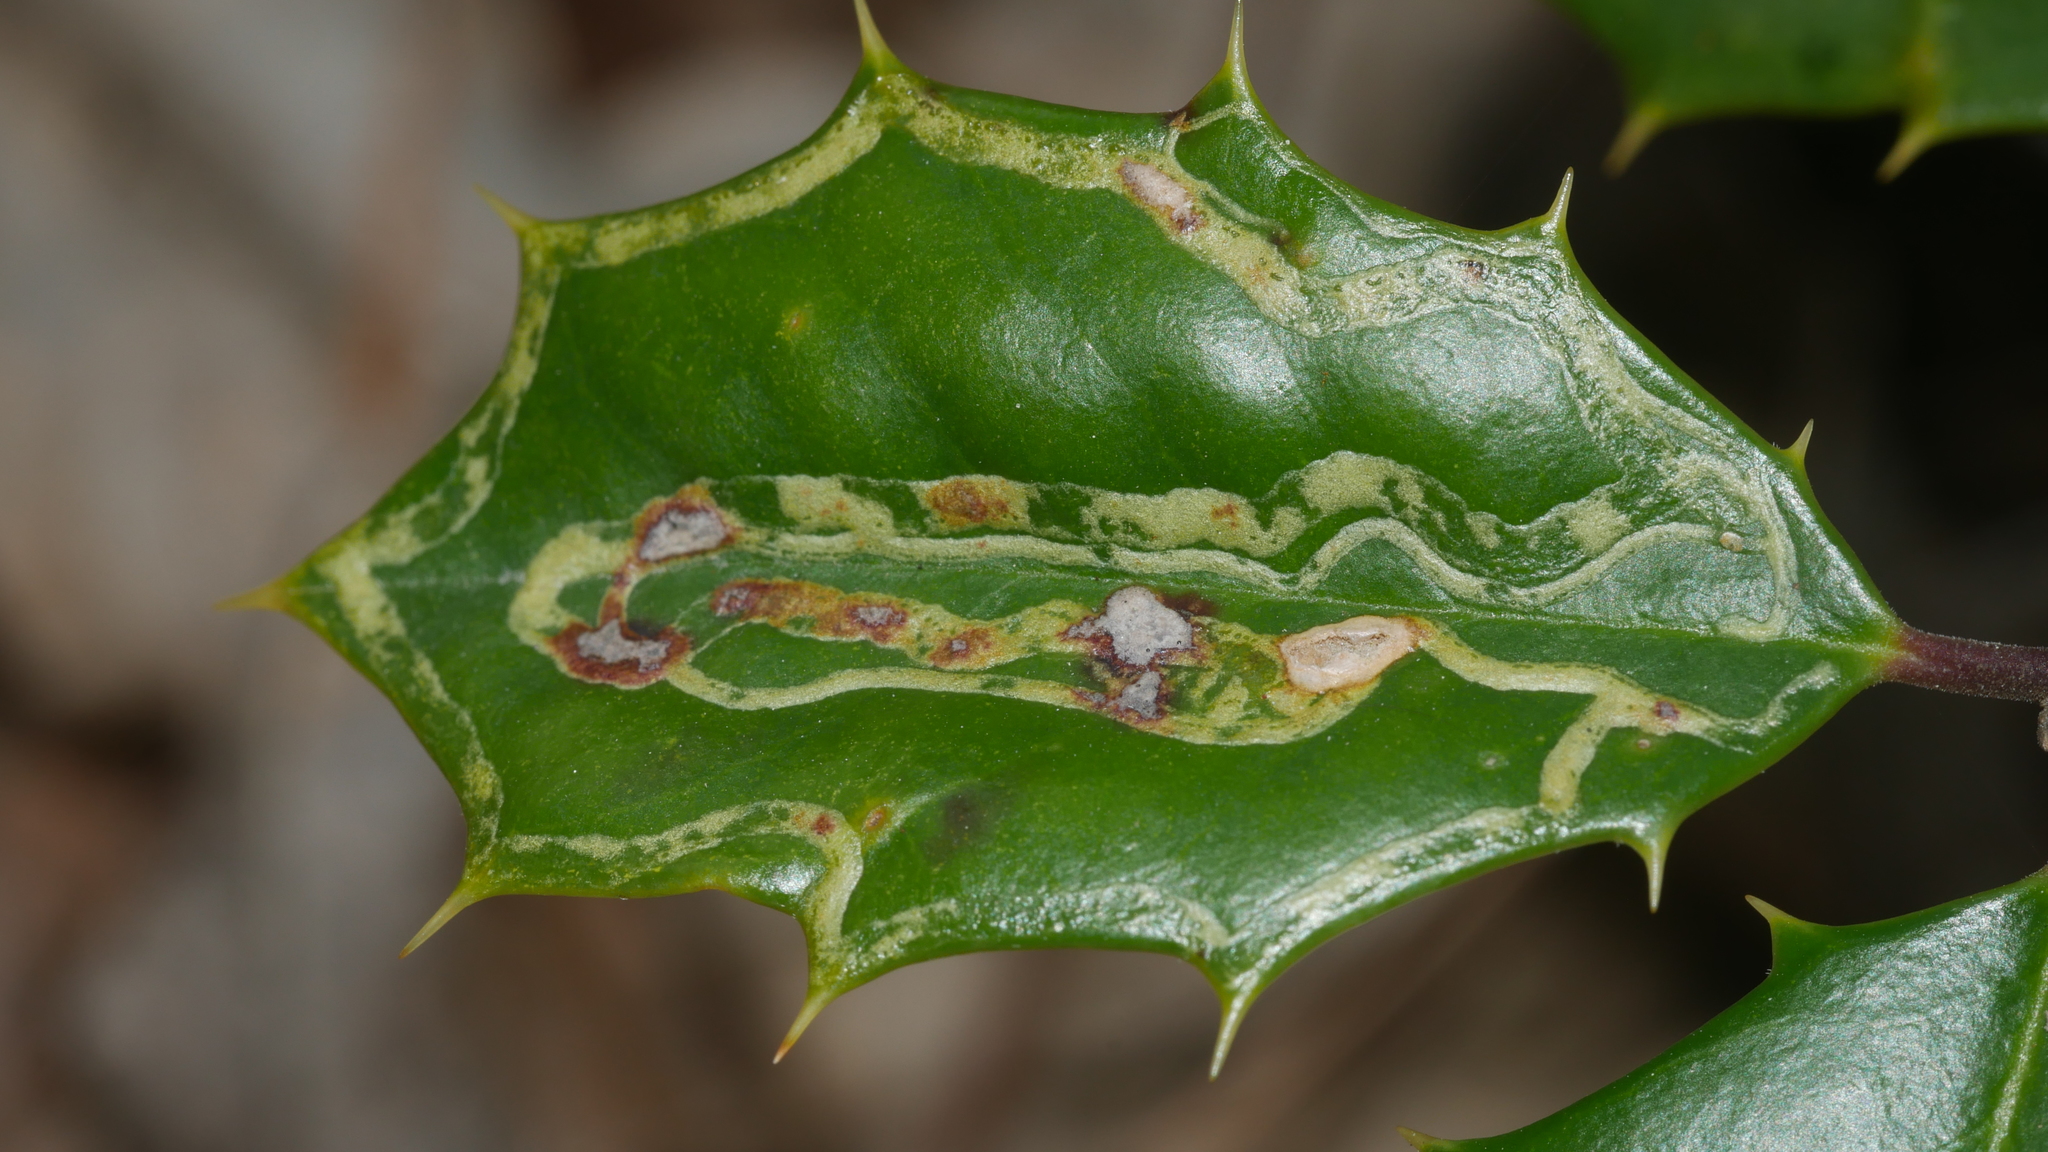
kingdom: Animalia
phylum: Arthropoda
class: Insecta
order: Diptera
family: Agromyzidae
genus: Phytomyza
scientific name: Phytomyza opacae
